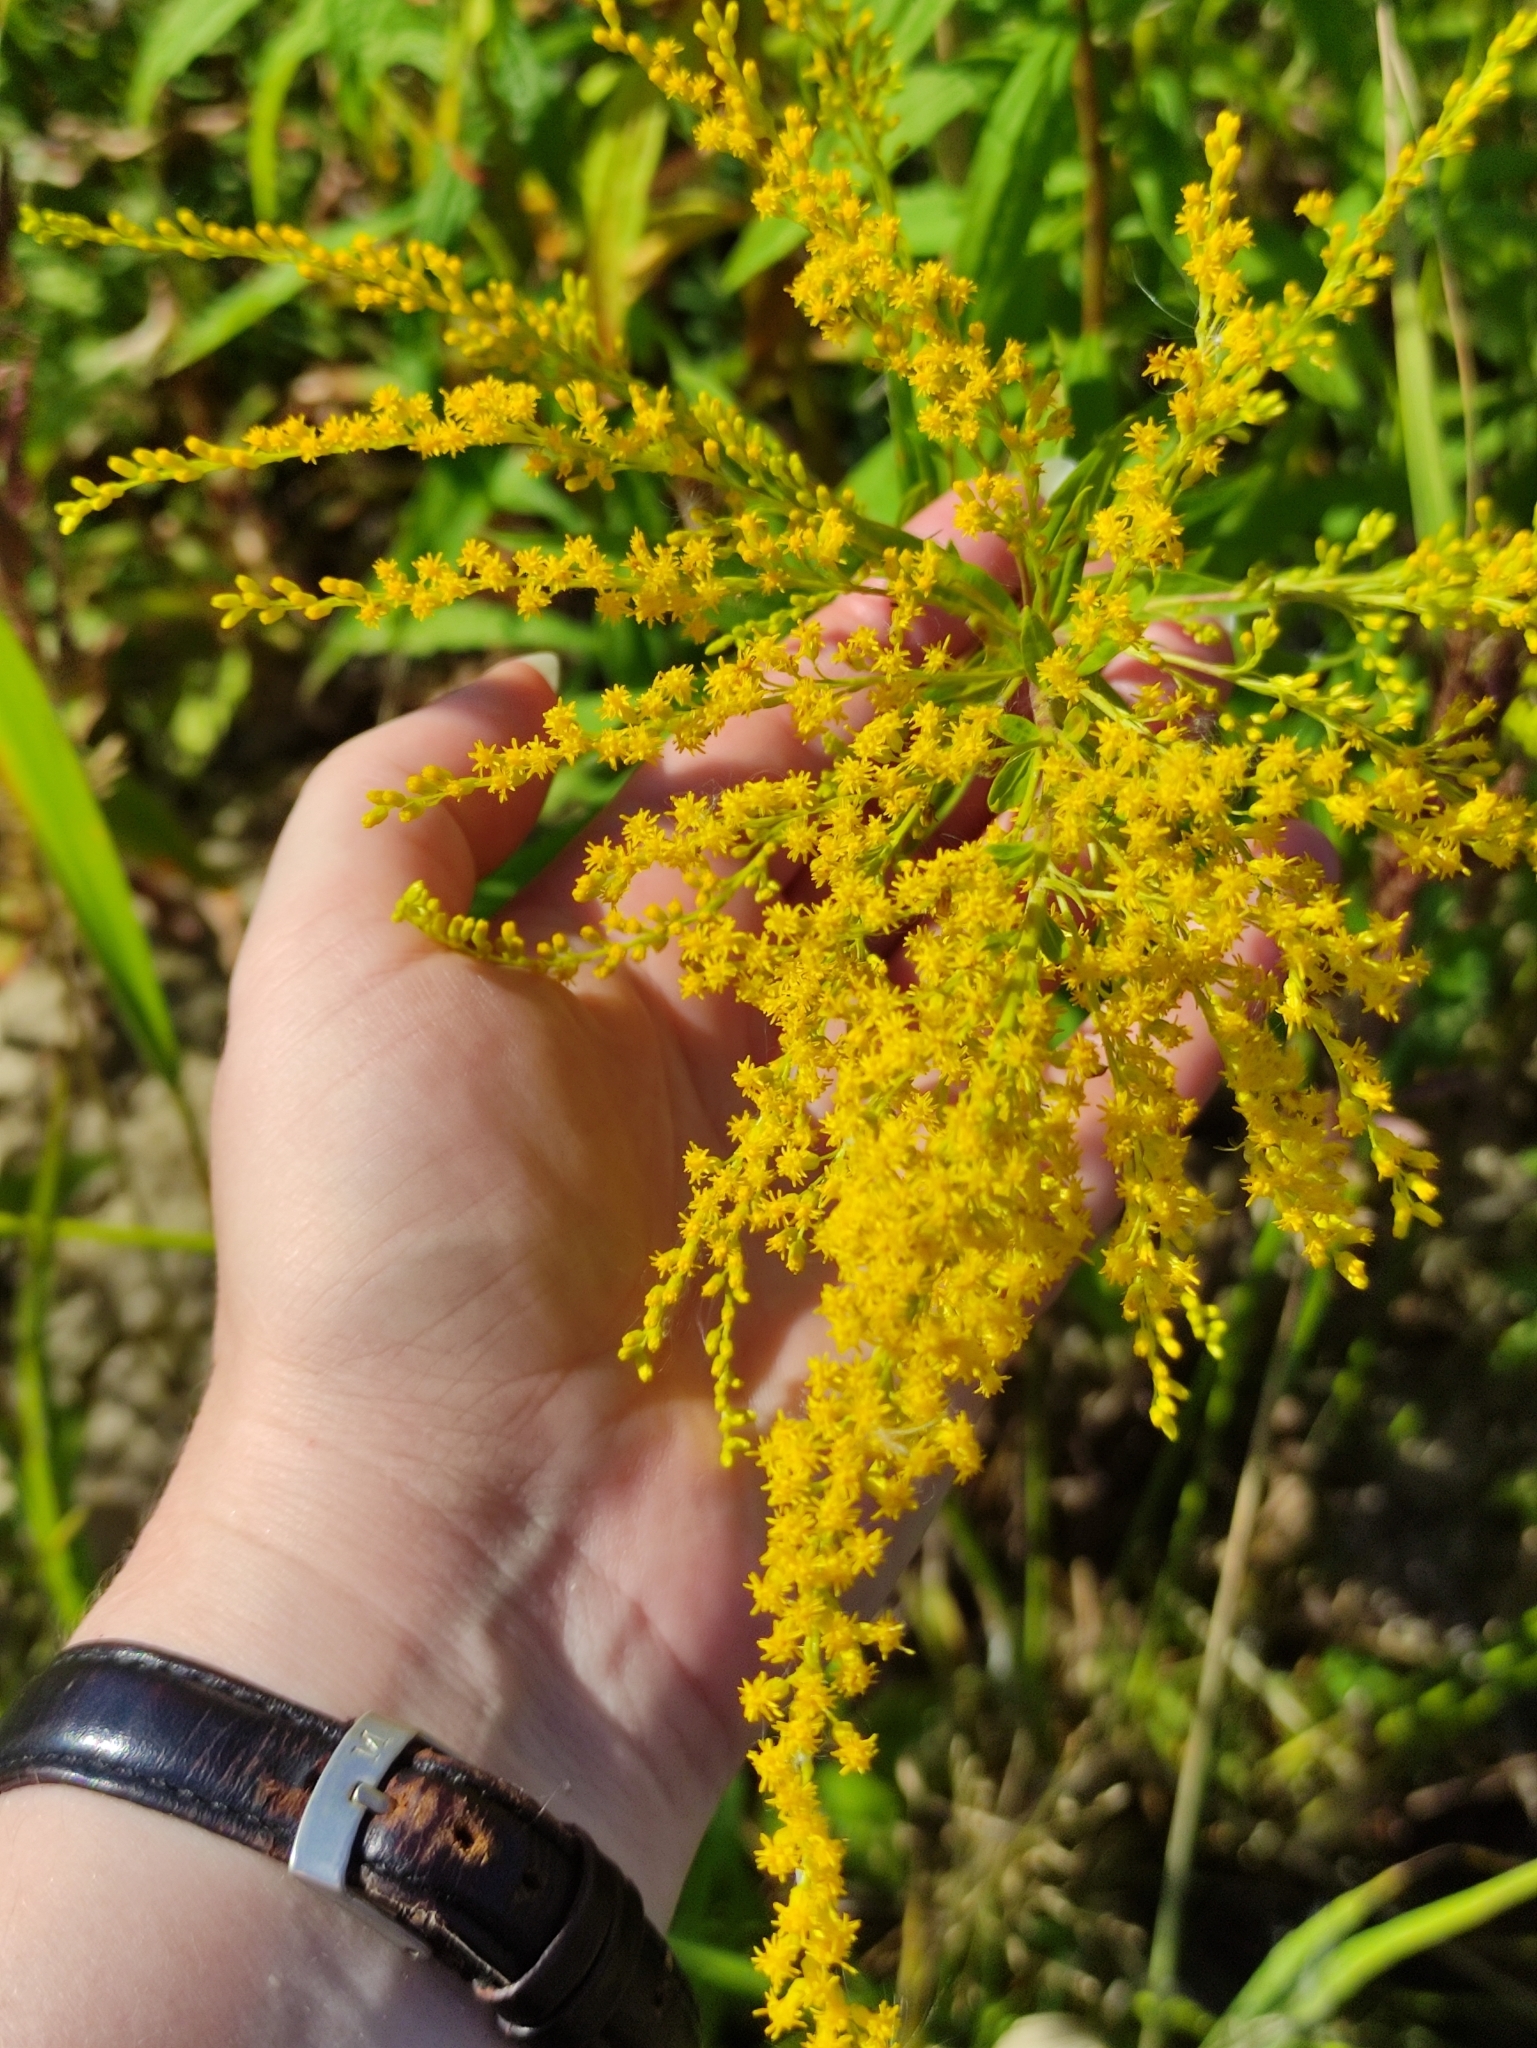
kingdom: Plantae
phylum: Tracheophyta
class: Magnoliopsida
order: Asterales
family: Asteraceae
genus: Solidago
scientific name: Solidago canadensis
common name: Canada goldenrod
